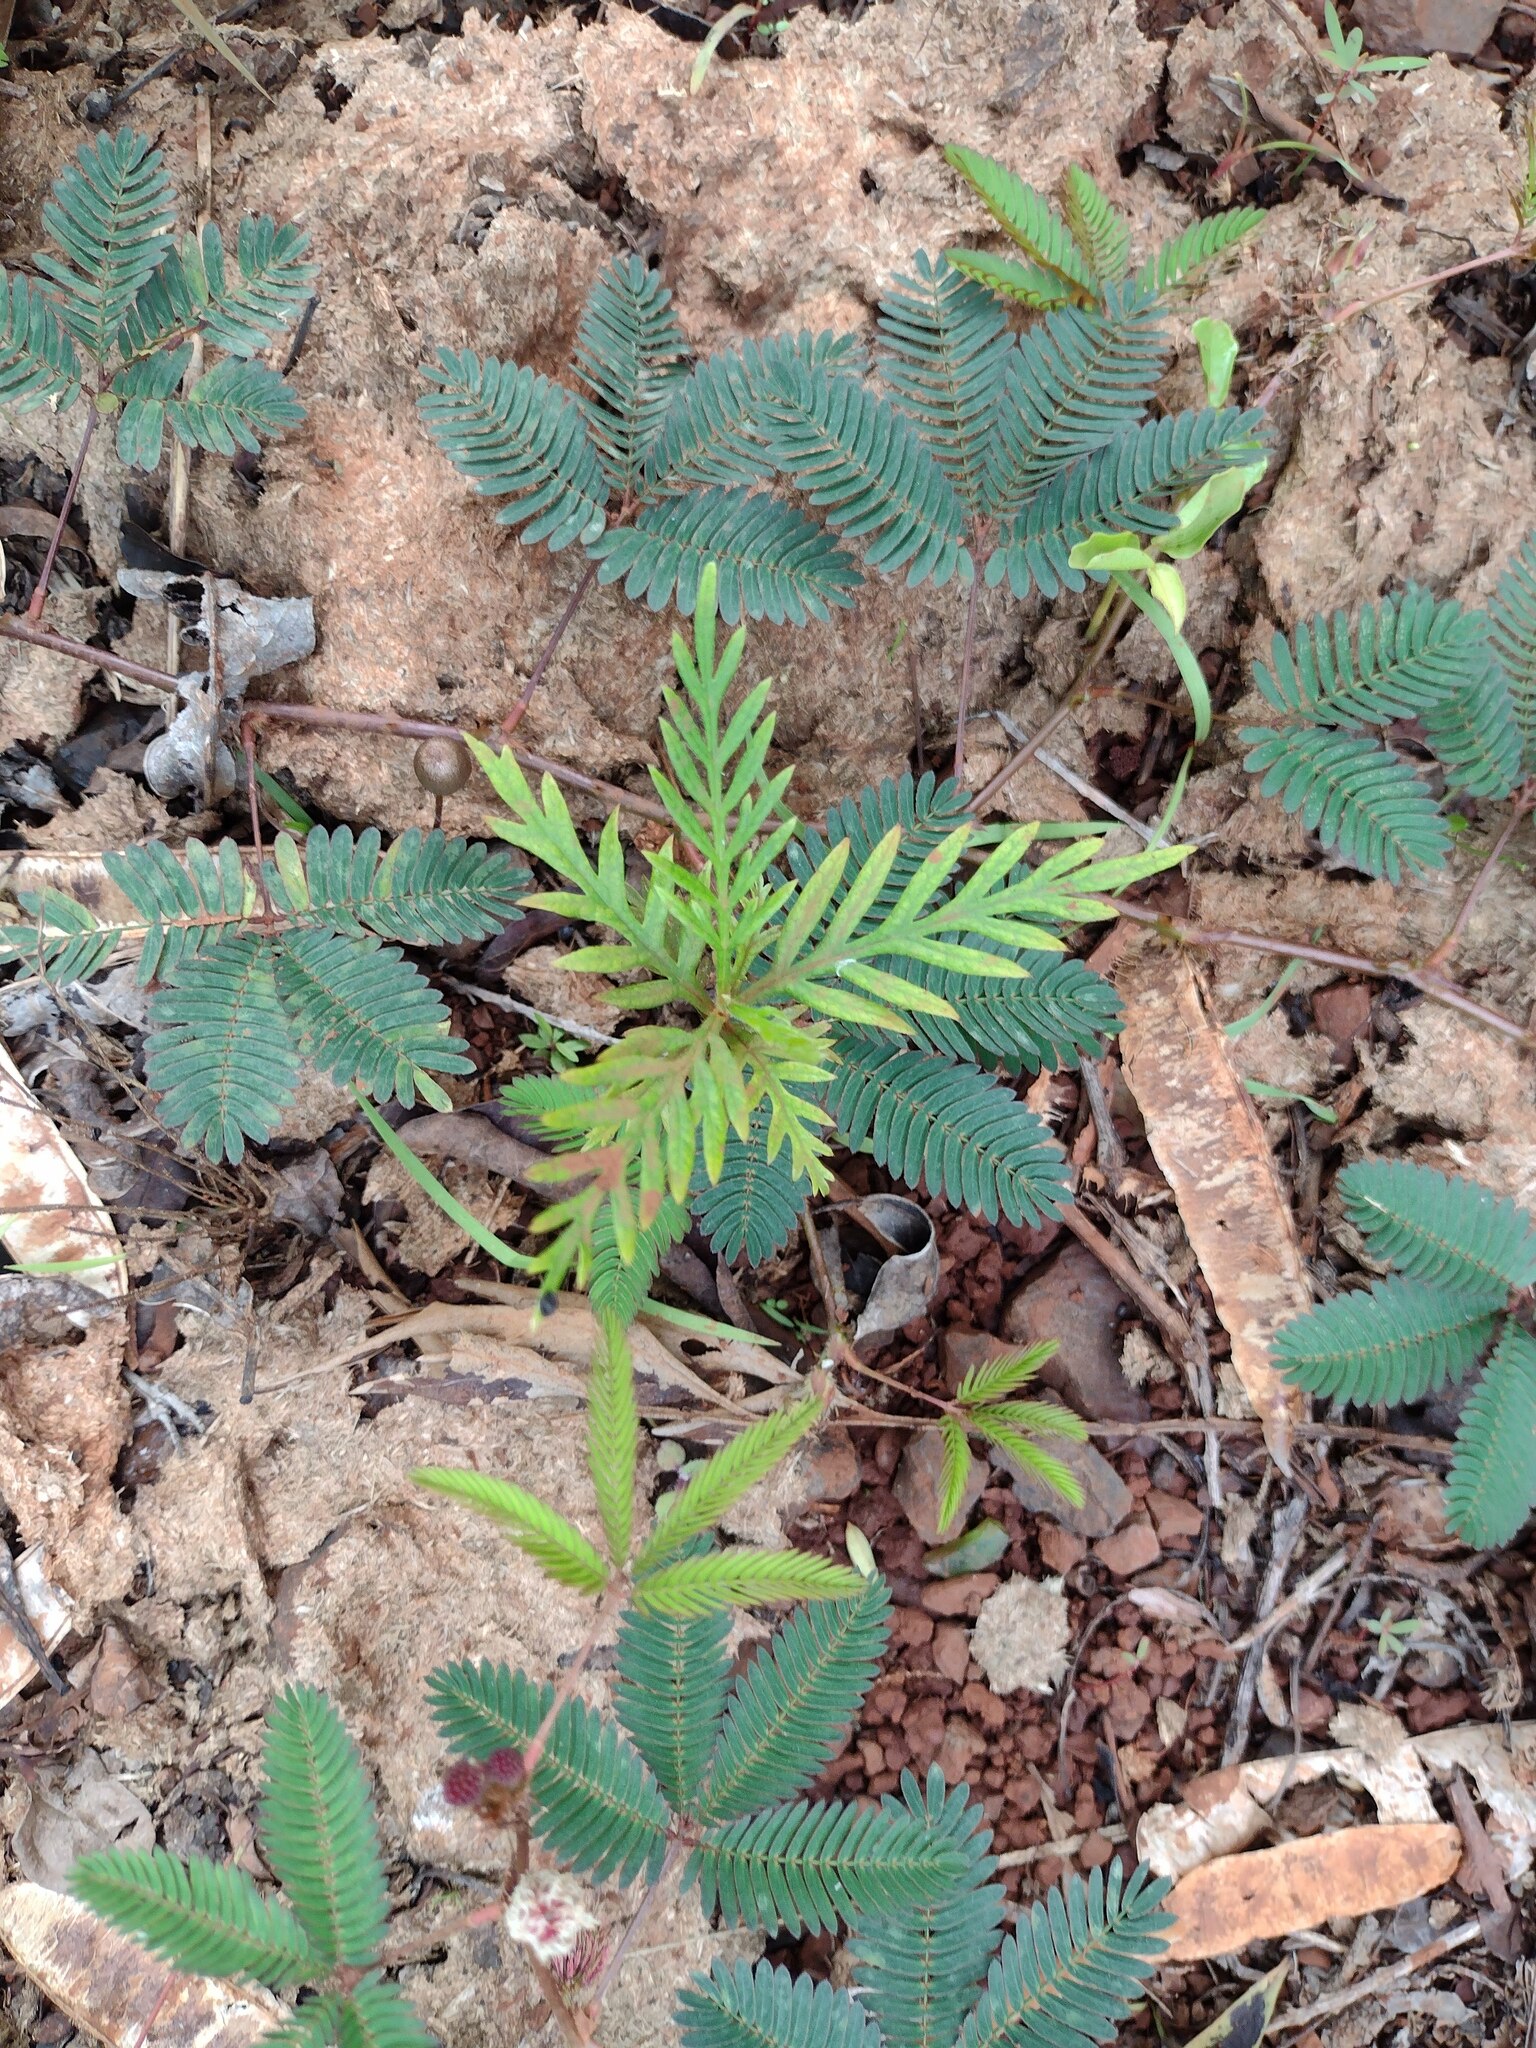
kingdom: Plantae
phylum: Tracheophyta
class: Magnoliopsida
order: Proteales
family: Proteaceae
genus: Grevillea
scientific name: Grevillea robusta
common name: Silkoak
